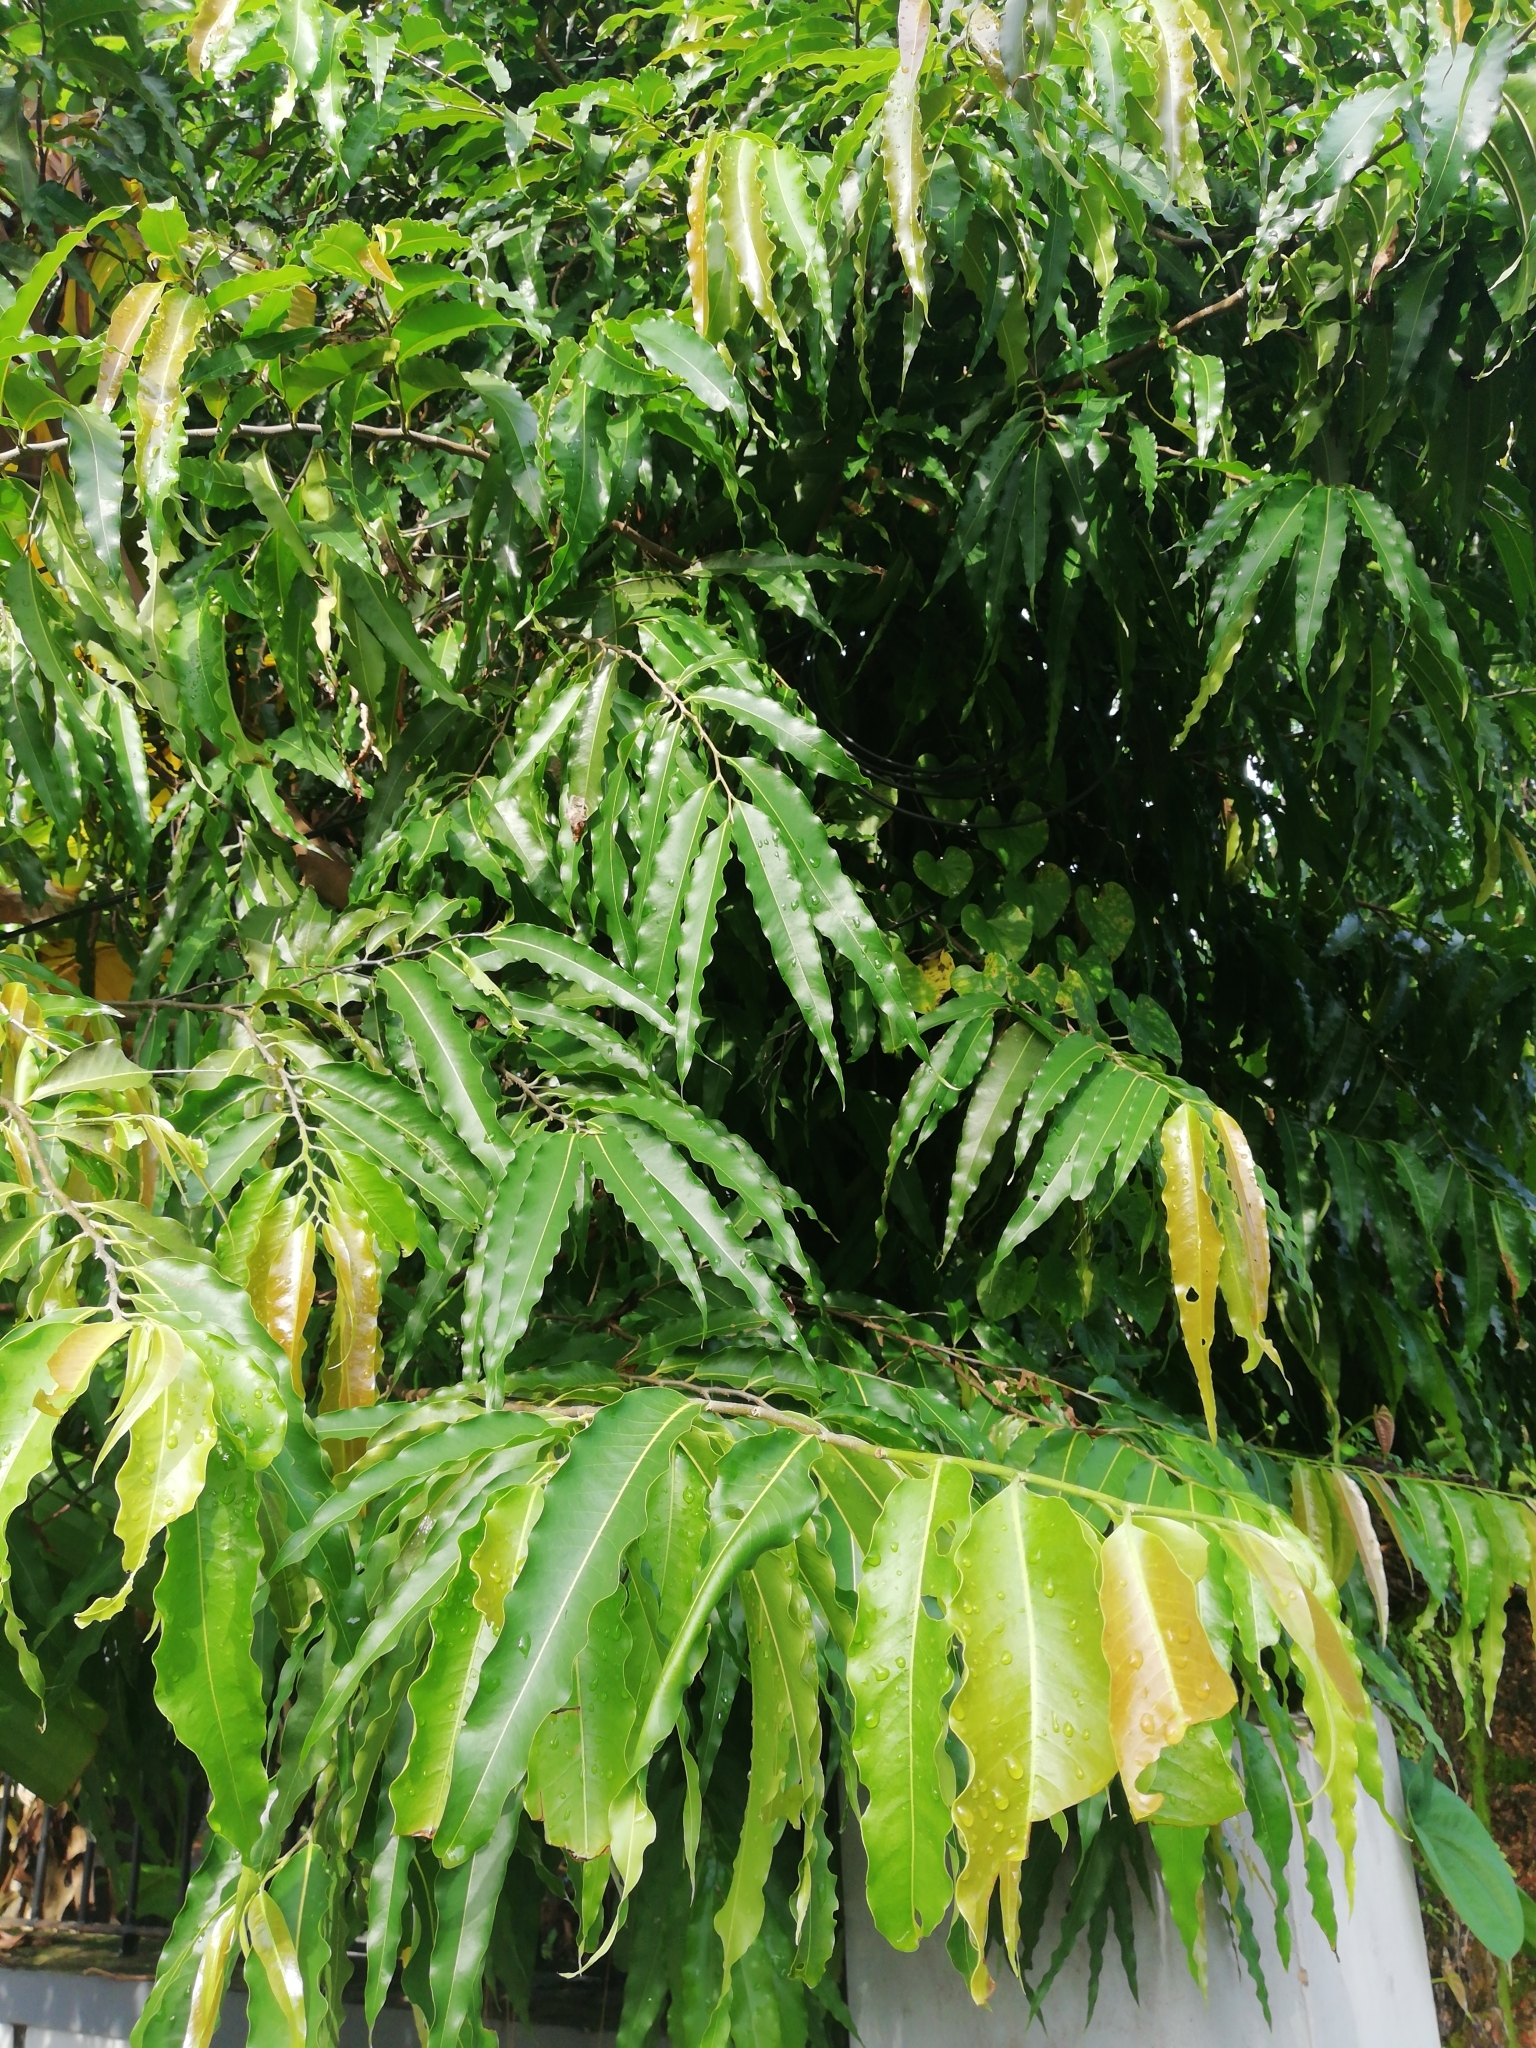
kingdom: Plantae
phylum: Tracheophyta
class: Magnoliopsida
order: Magnoliales
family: Annonaceae
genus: Polyalthia
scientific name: Polyalthia longifolia
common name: Cemetery-tree
